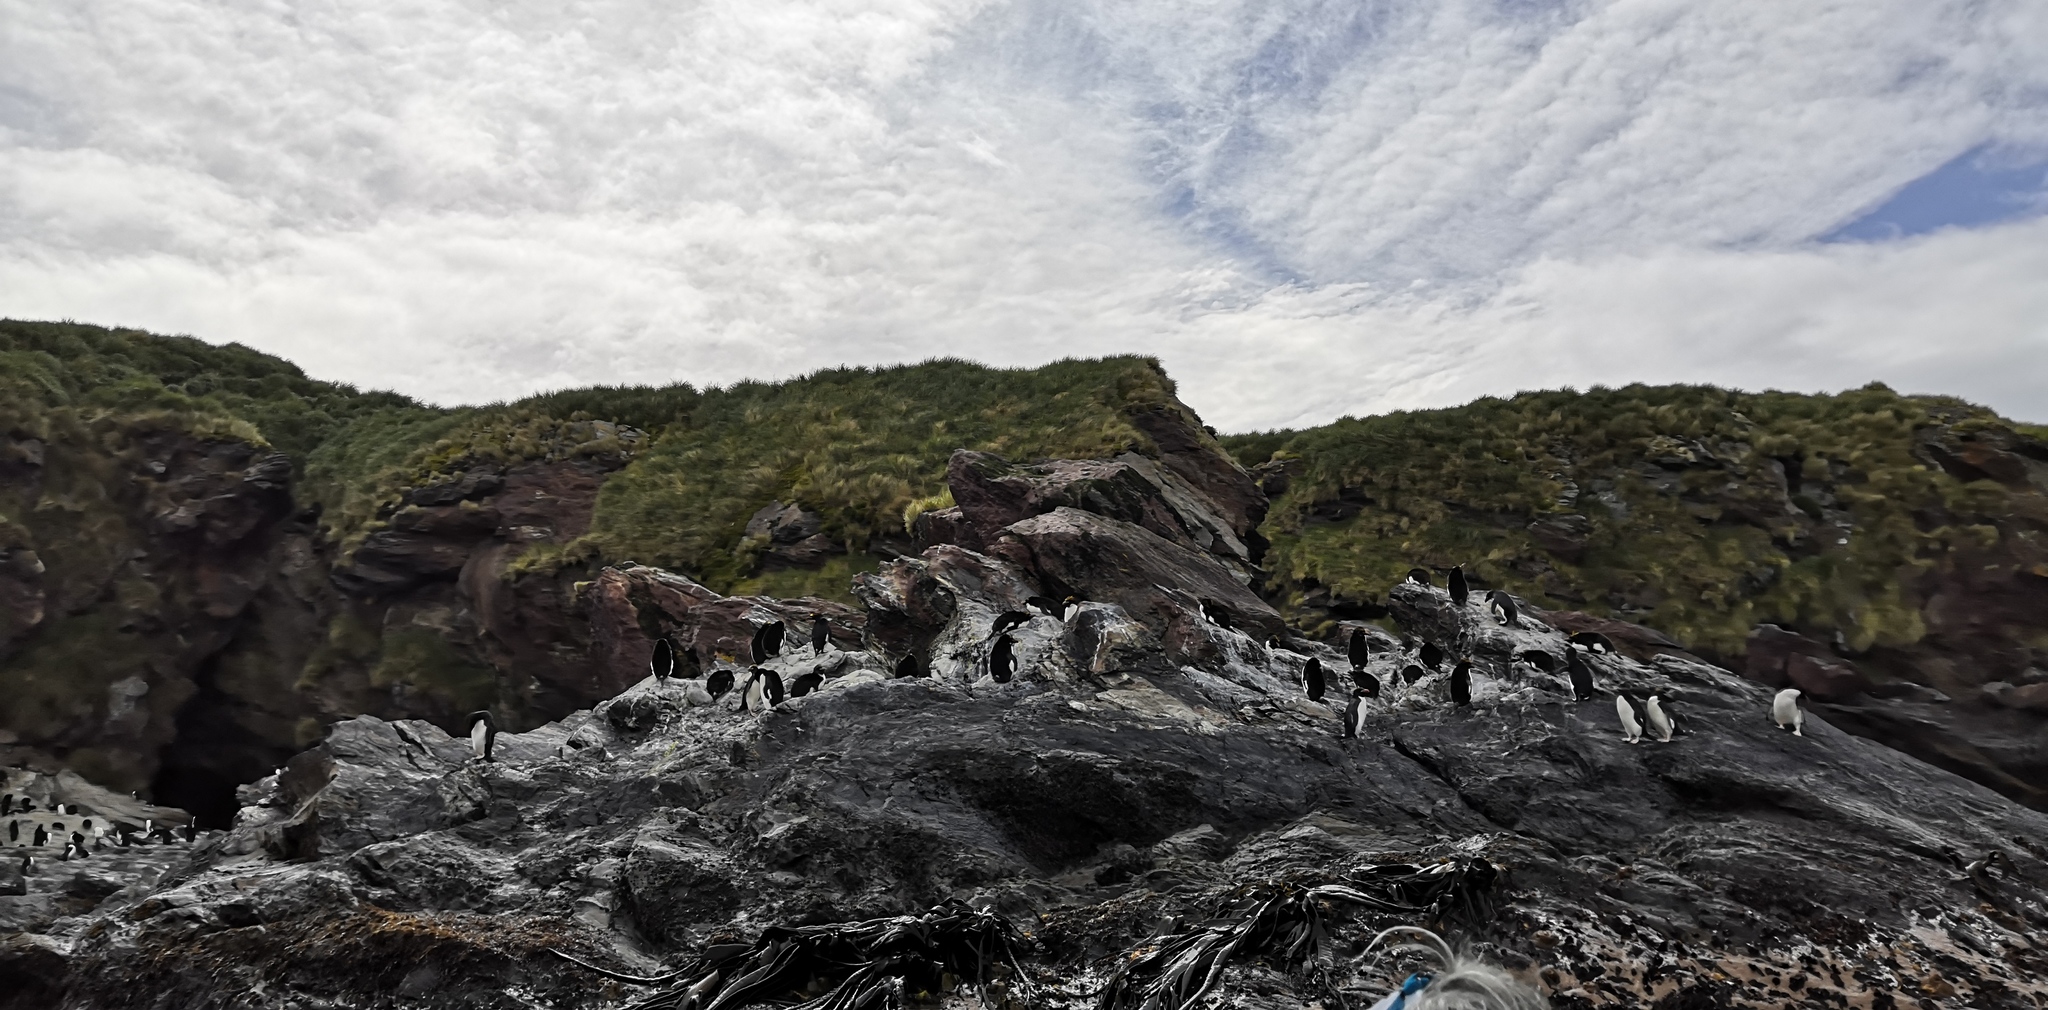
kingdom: Animalia
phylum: Chordata
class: Aves
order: Sphenisciformes
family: Spheniscidae
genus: Eudyptes
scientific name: Eudyptes chrysolophus
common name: Macaroni penguin
